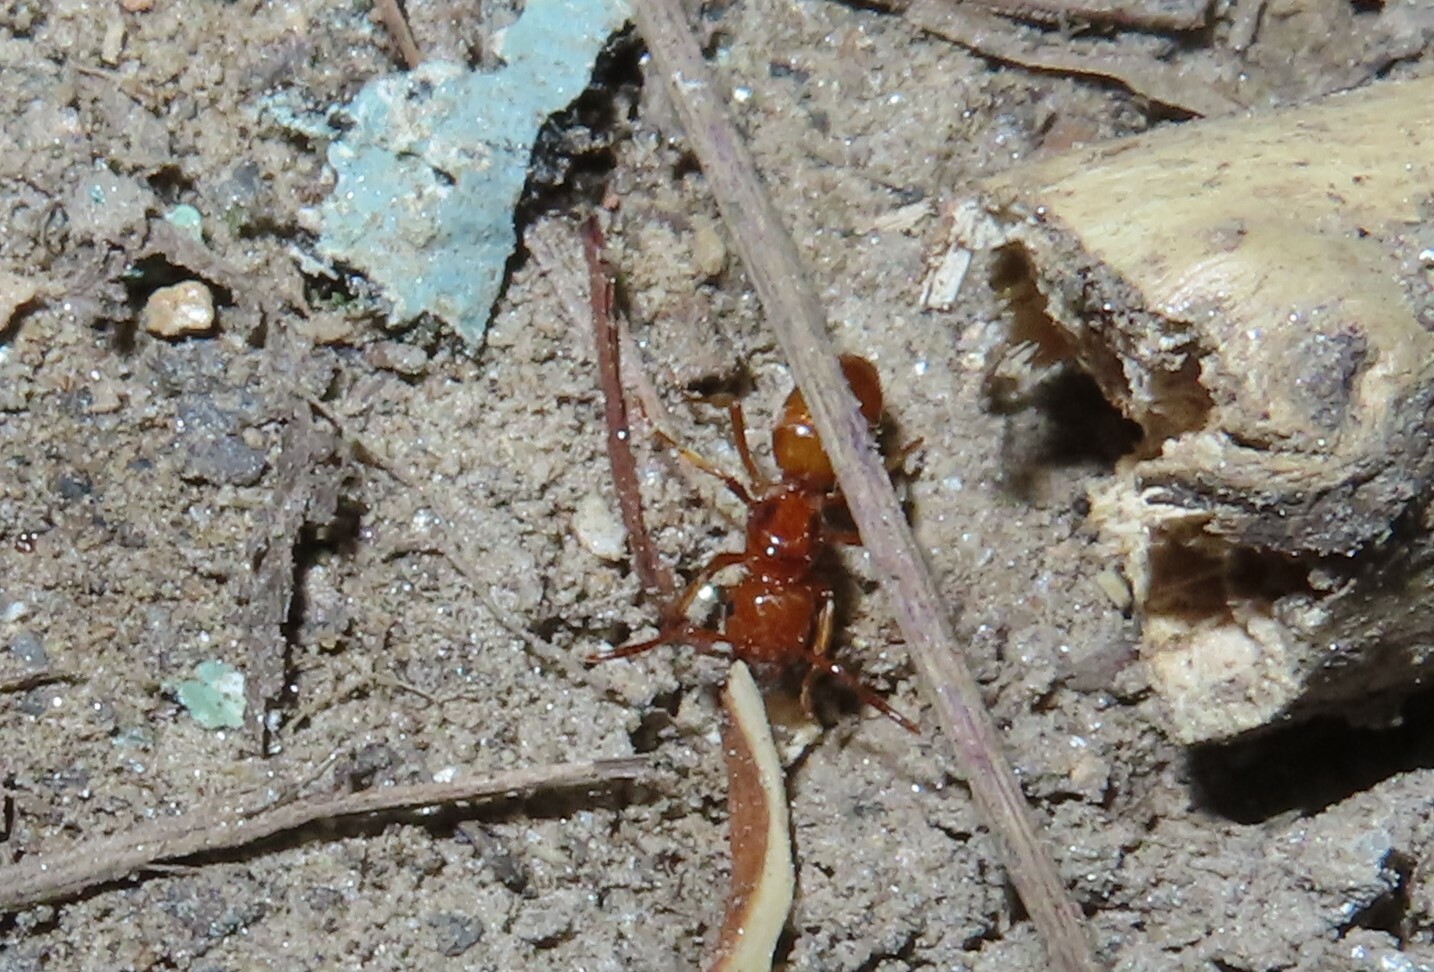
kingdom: Animalia
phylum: Arthropoda
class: Insecta
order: Hymenoptera
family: Formicidae
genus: Acanthomyops
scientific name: Acanthomyops interjectus
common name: Larger yellow ant
